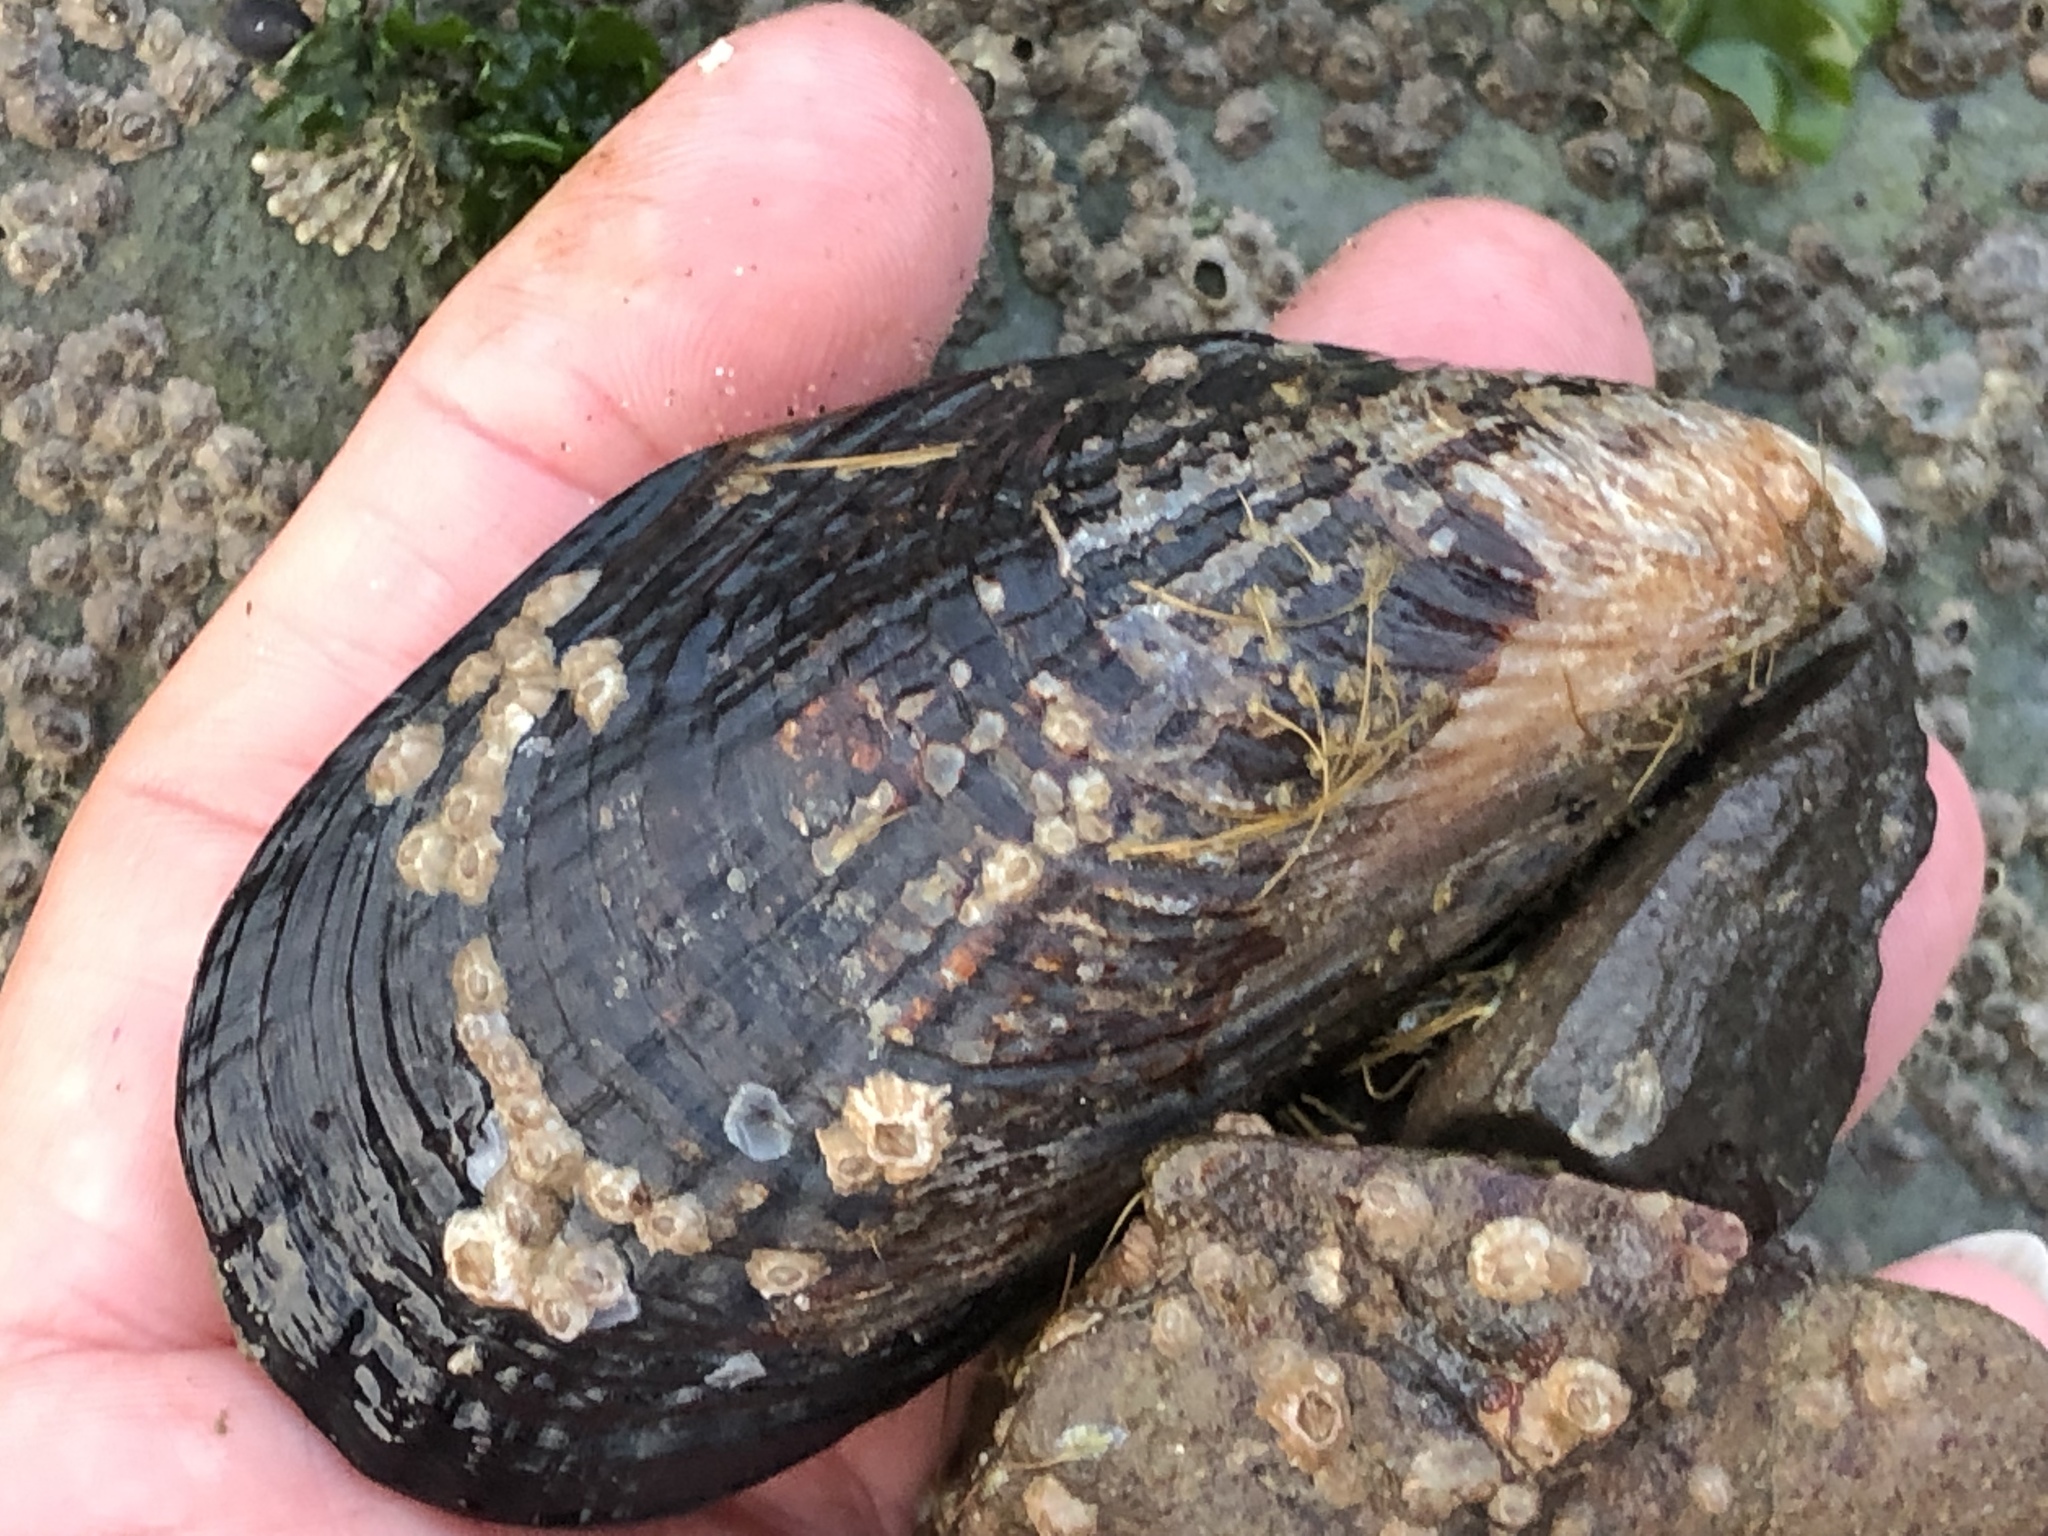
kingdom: Animalia
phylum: Mollusca
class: Bivalvia
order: Mytilida
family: Mytilidae
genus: Mytilus
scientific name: Mytilus californianus
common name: California mussel
